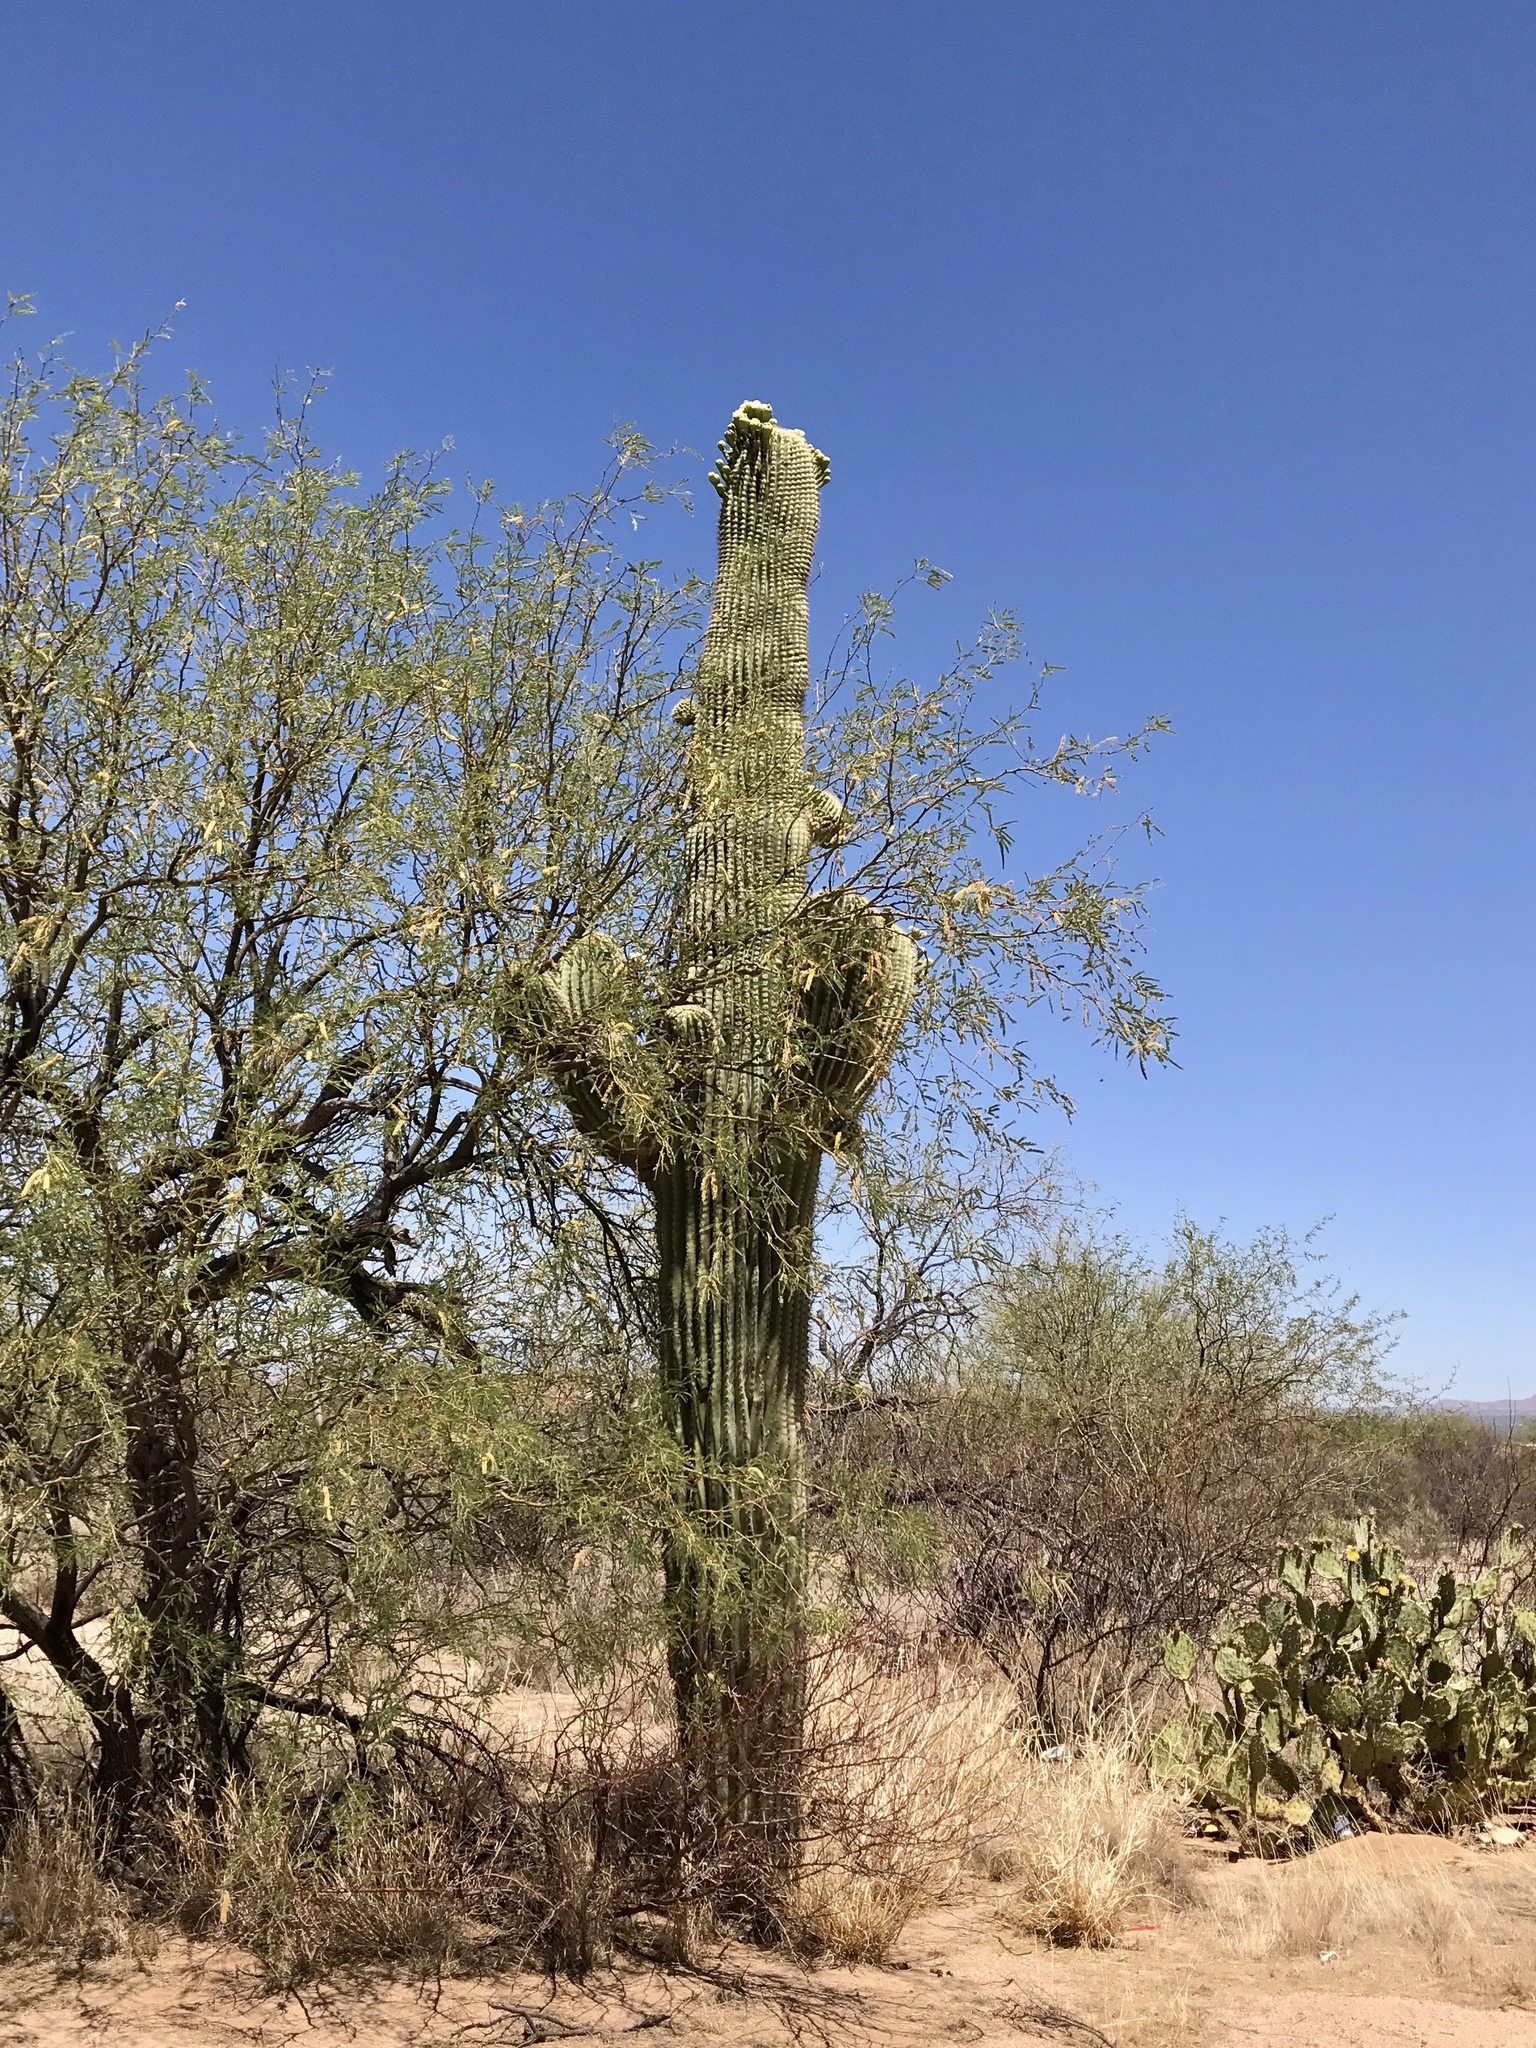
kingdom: Plantae
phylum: Tracheophyta
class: Magnoliopsida
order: Caryophyllales
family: Cactaceae
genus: Carnegiea
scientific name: Carnegiea gigantea
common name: Saguaro
